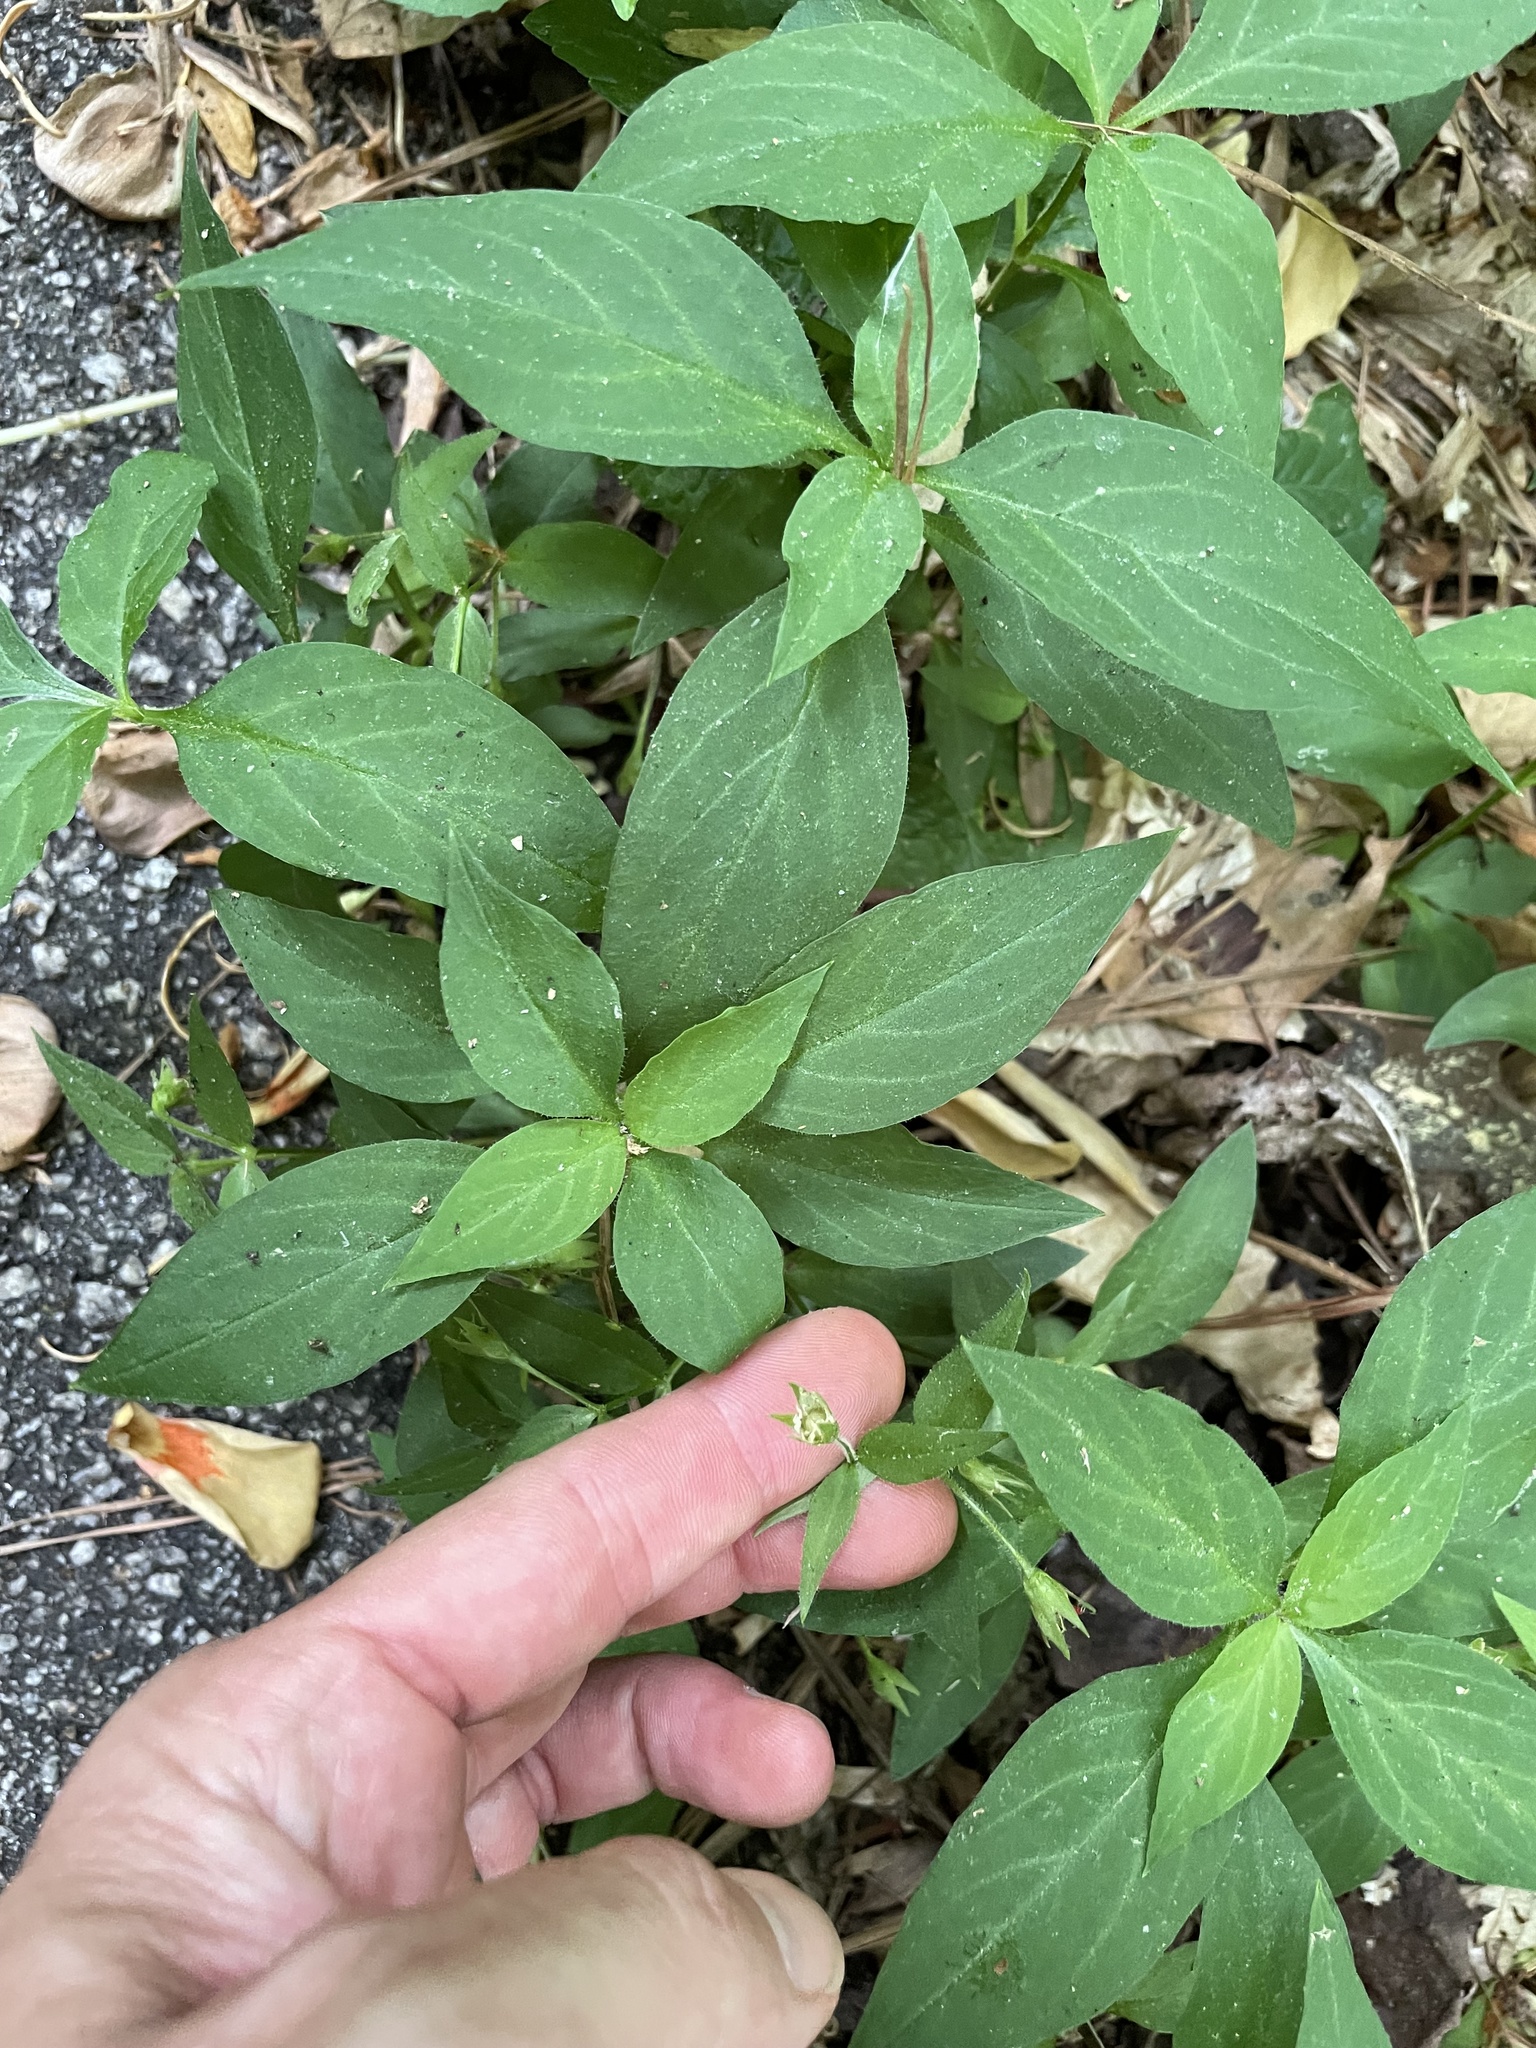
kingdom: Plantae
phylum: Tracheophyta
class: Magnoliopsida
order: Caryophyllales
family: Caryophyllaceae
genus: Stellaria
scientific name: Stellaria pubera
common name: Star chickweed
